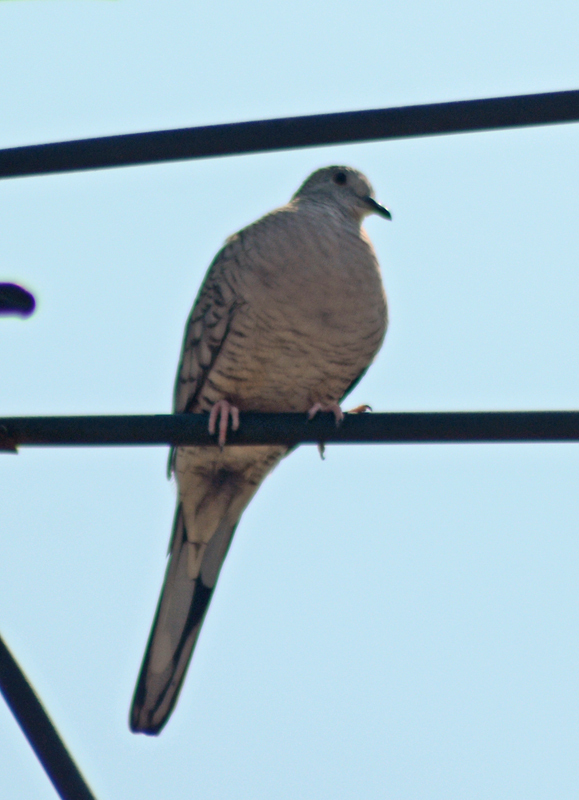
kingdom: Animalia
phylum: Chordata
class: Aves
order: Columbiformes
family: Columbidae
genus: Columbina
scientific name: Columbina inca
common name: Inca dove
